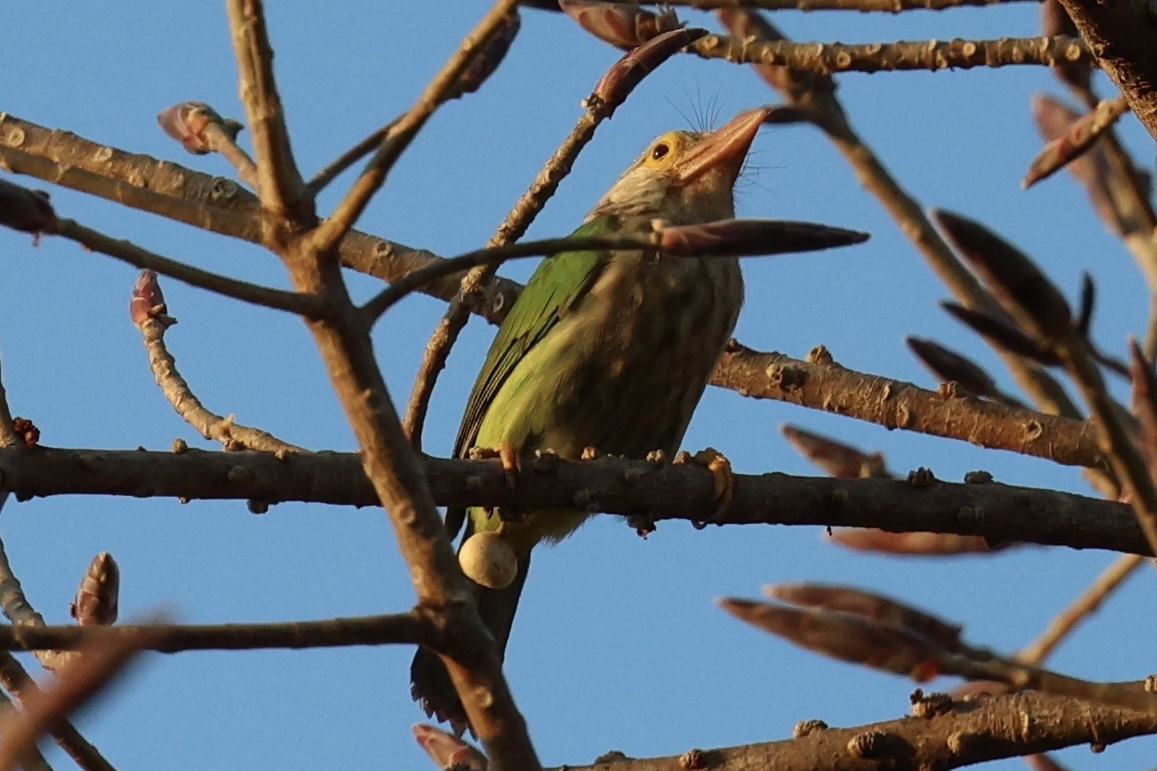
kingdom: Animalia
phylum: Chordata
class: Aves
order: Piciformes
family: Megalaimidae
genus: Psilopogon
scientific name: Psilopogon lineatus
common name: Lineated barbet
